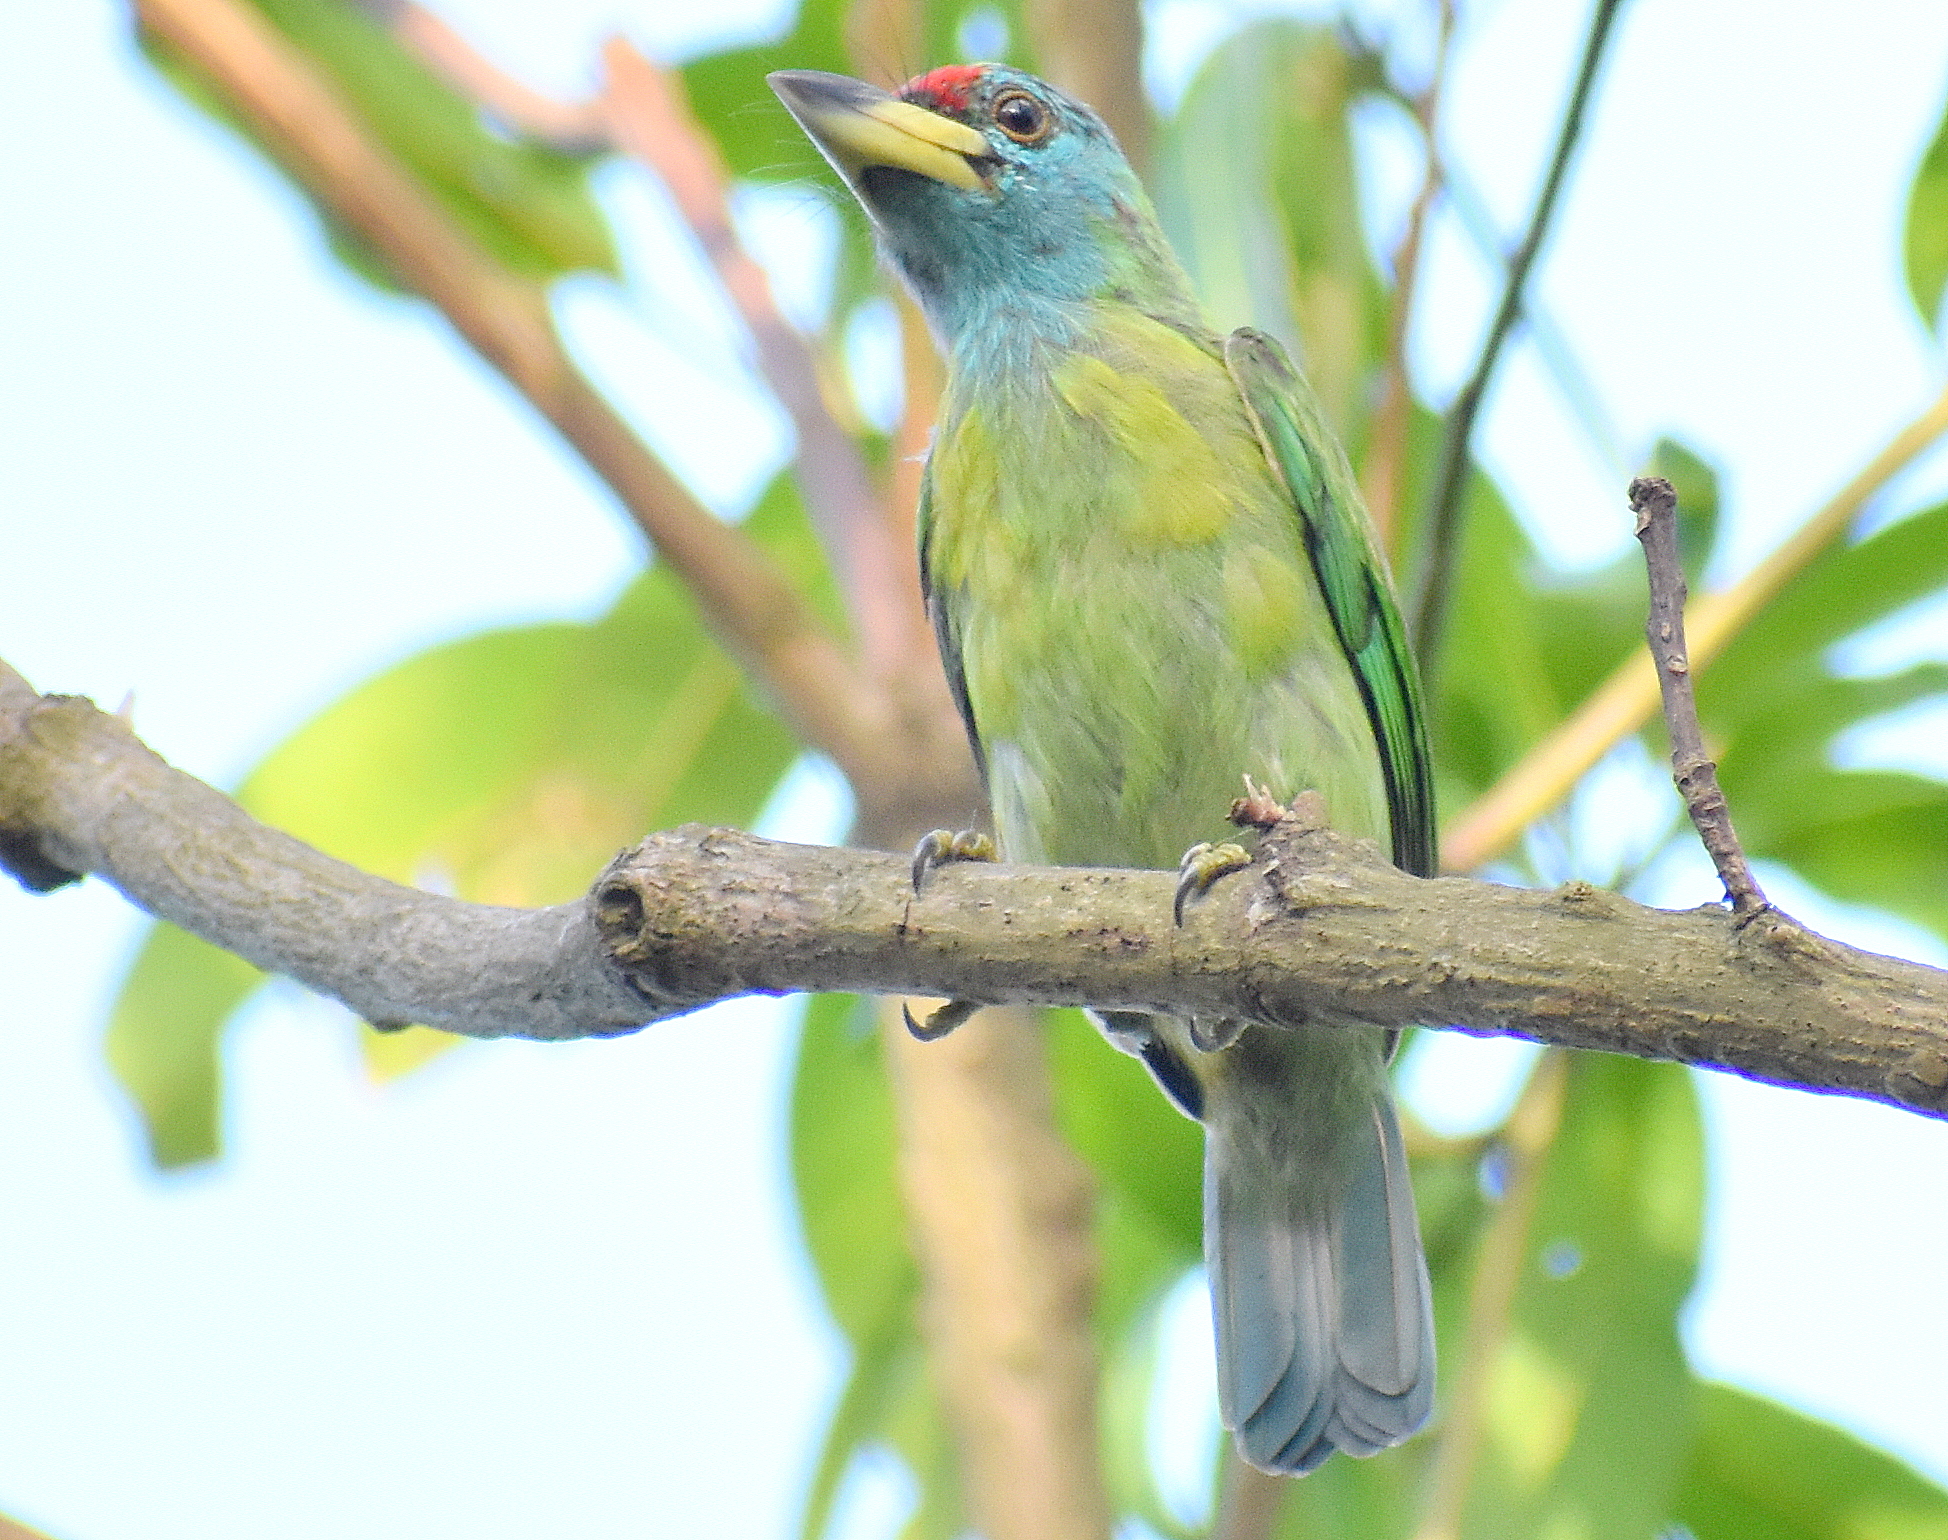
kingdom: Animalia
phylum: Chordata
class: Aves
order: Piciformes
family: Megalaimidae
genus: Psilopogon
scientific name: Psilopogon asiaticus
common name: Blue-throated barbet
